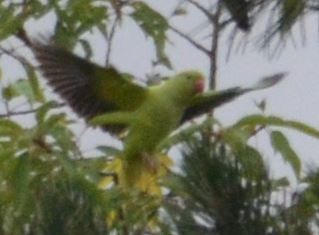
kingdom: Animalia
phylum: Chordata
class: Aves
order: Psittaciformes
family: Psittacidae
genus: Psittacula
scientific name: Psittacula krameri
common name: Rose-ringed parakeet
